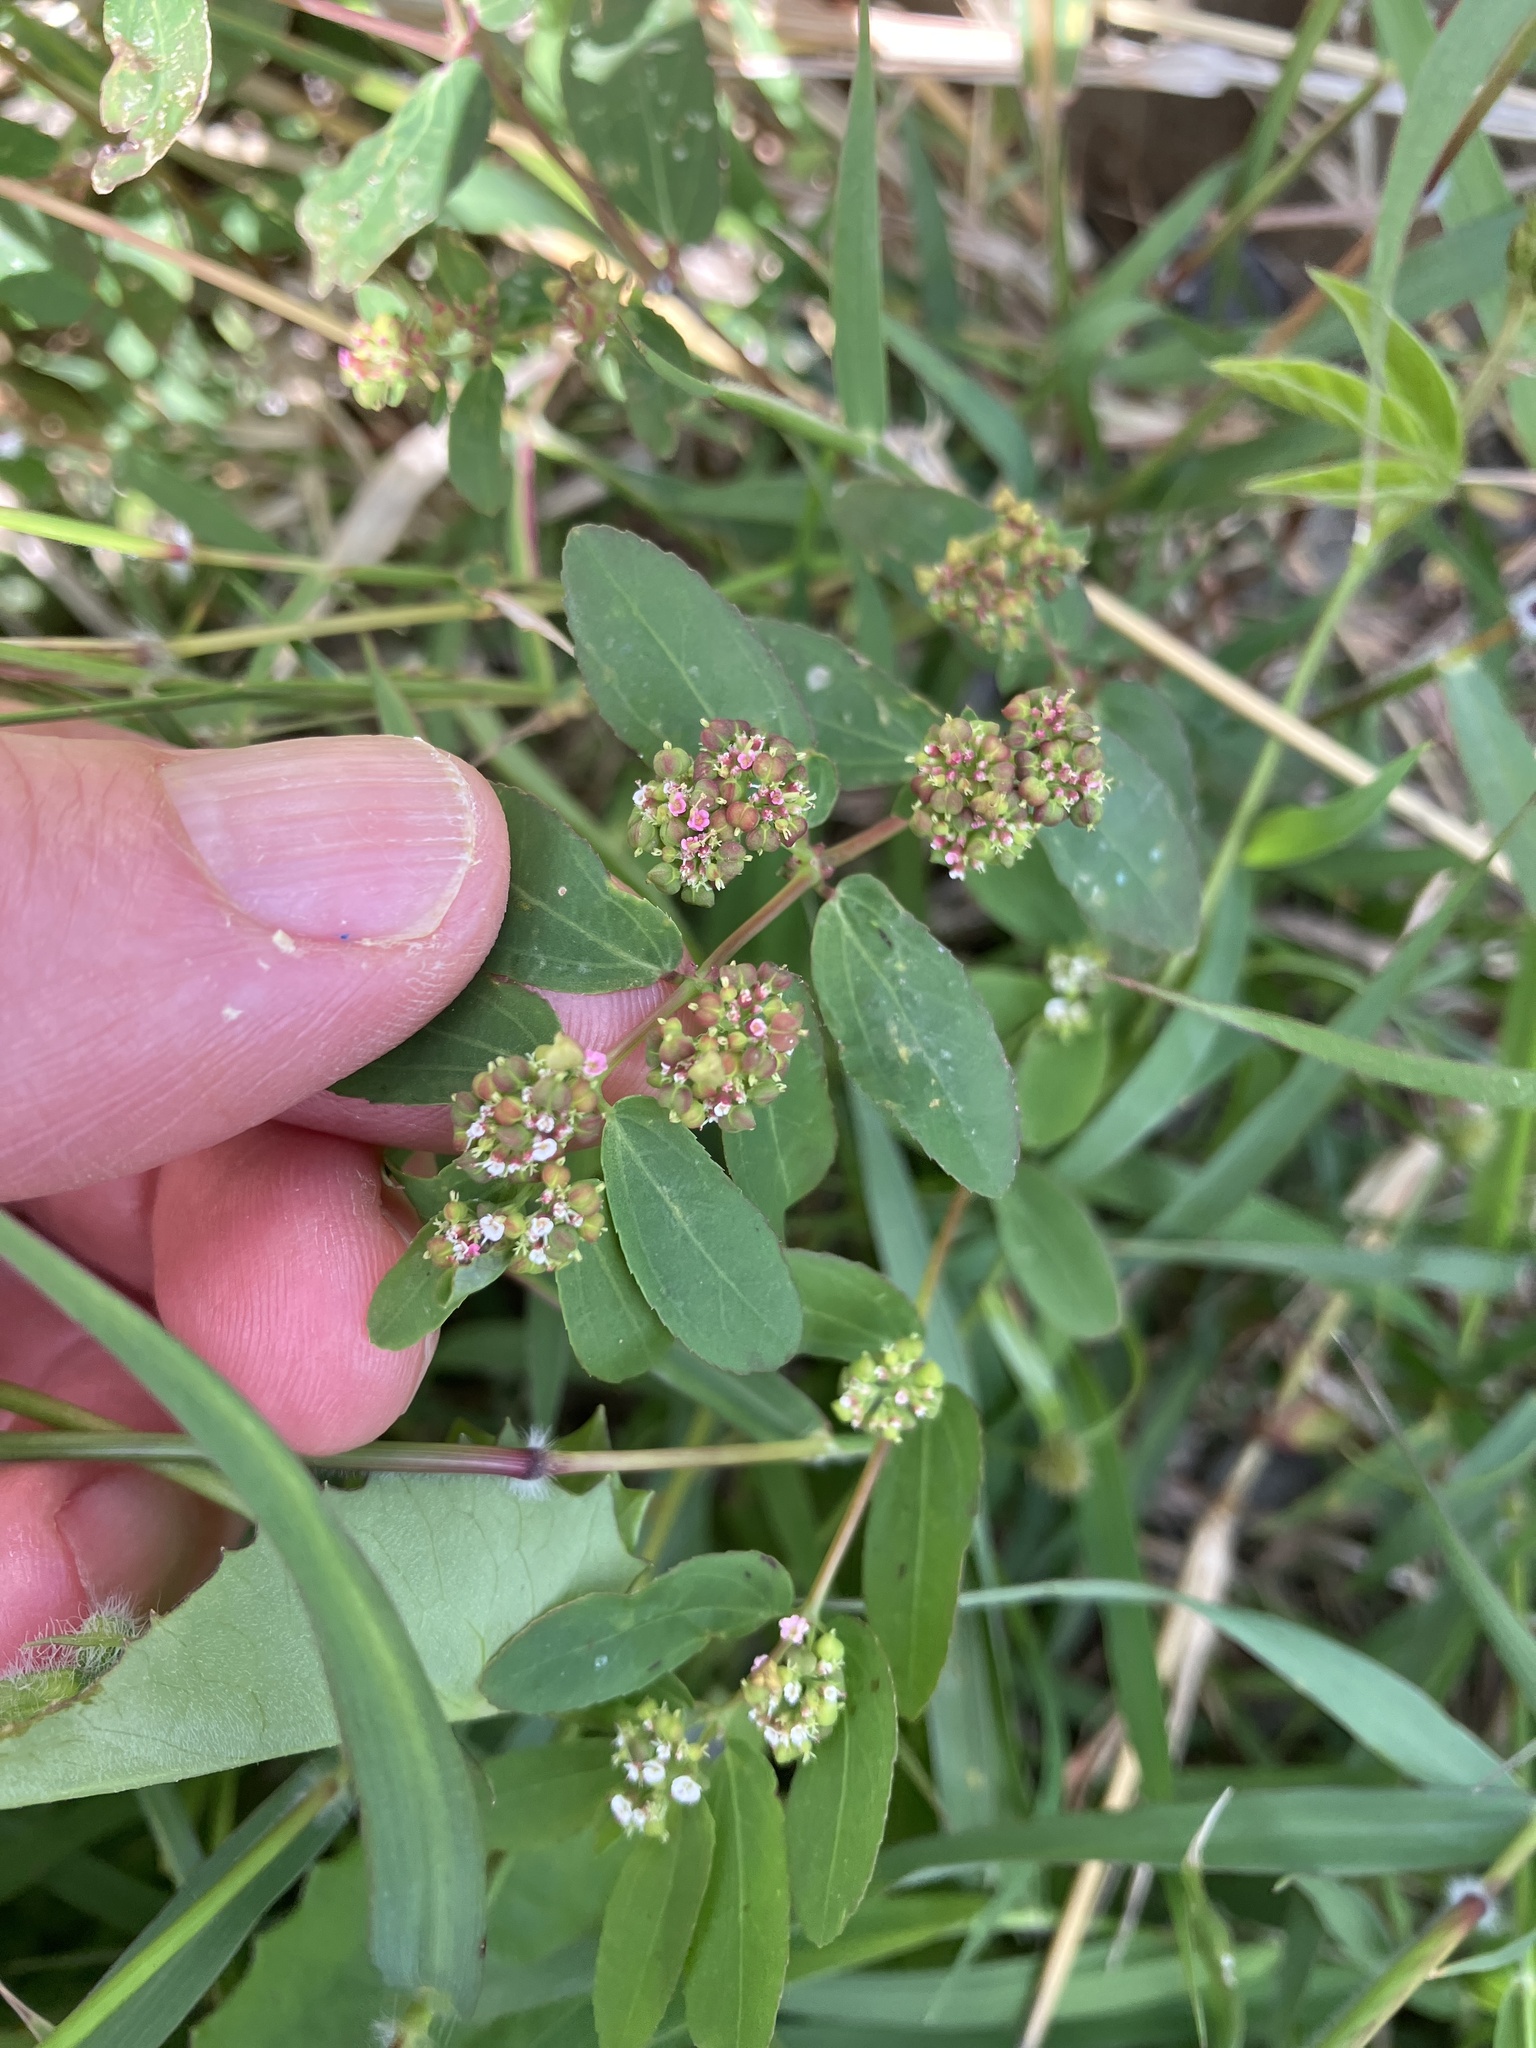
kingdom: Plantae
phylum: Tracheophyta
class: Magnoliopsida
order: Malpighiales
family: Euphorbiaceae
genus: Euphorbia
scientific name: Euphorbia hypericifolia
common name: Graceful sandmat
